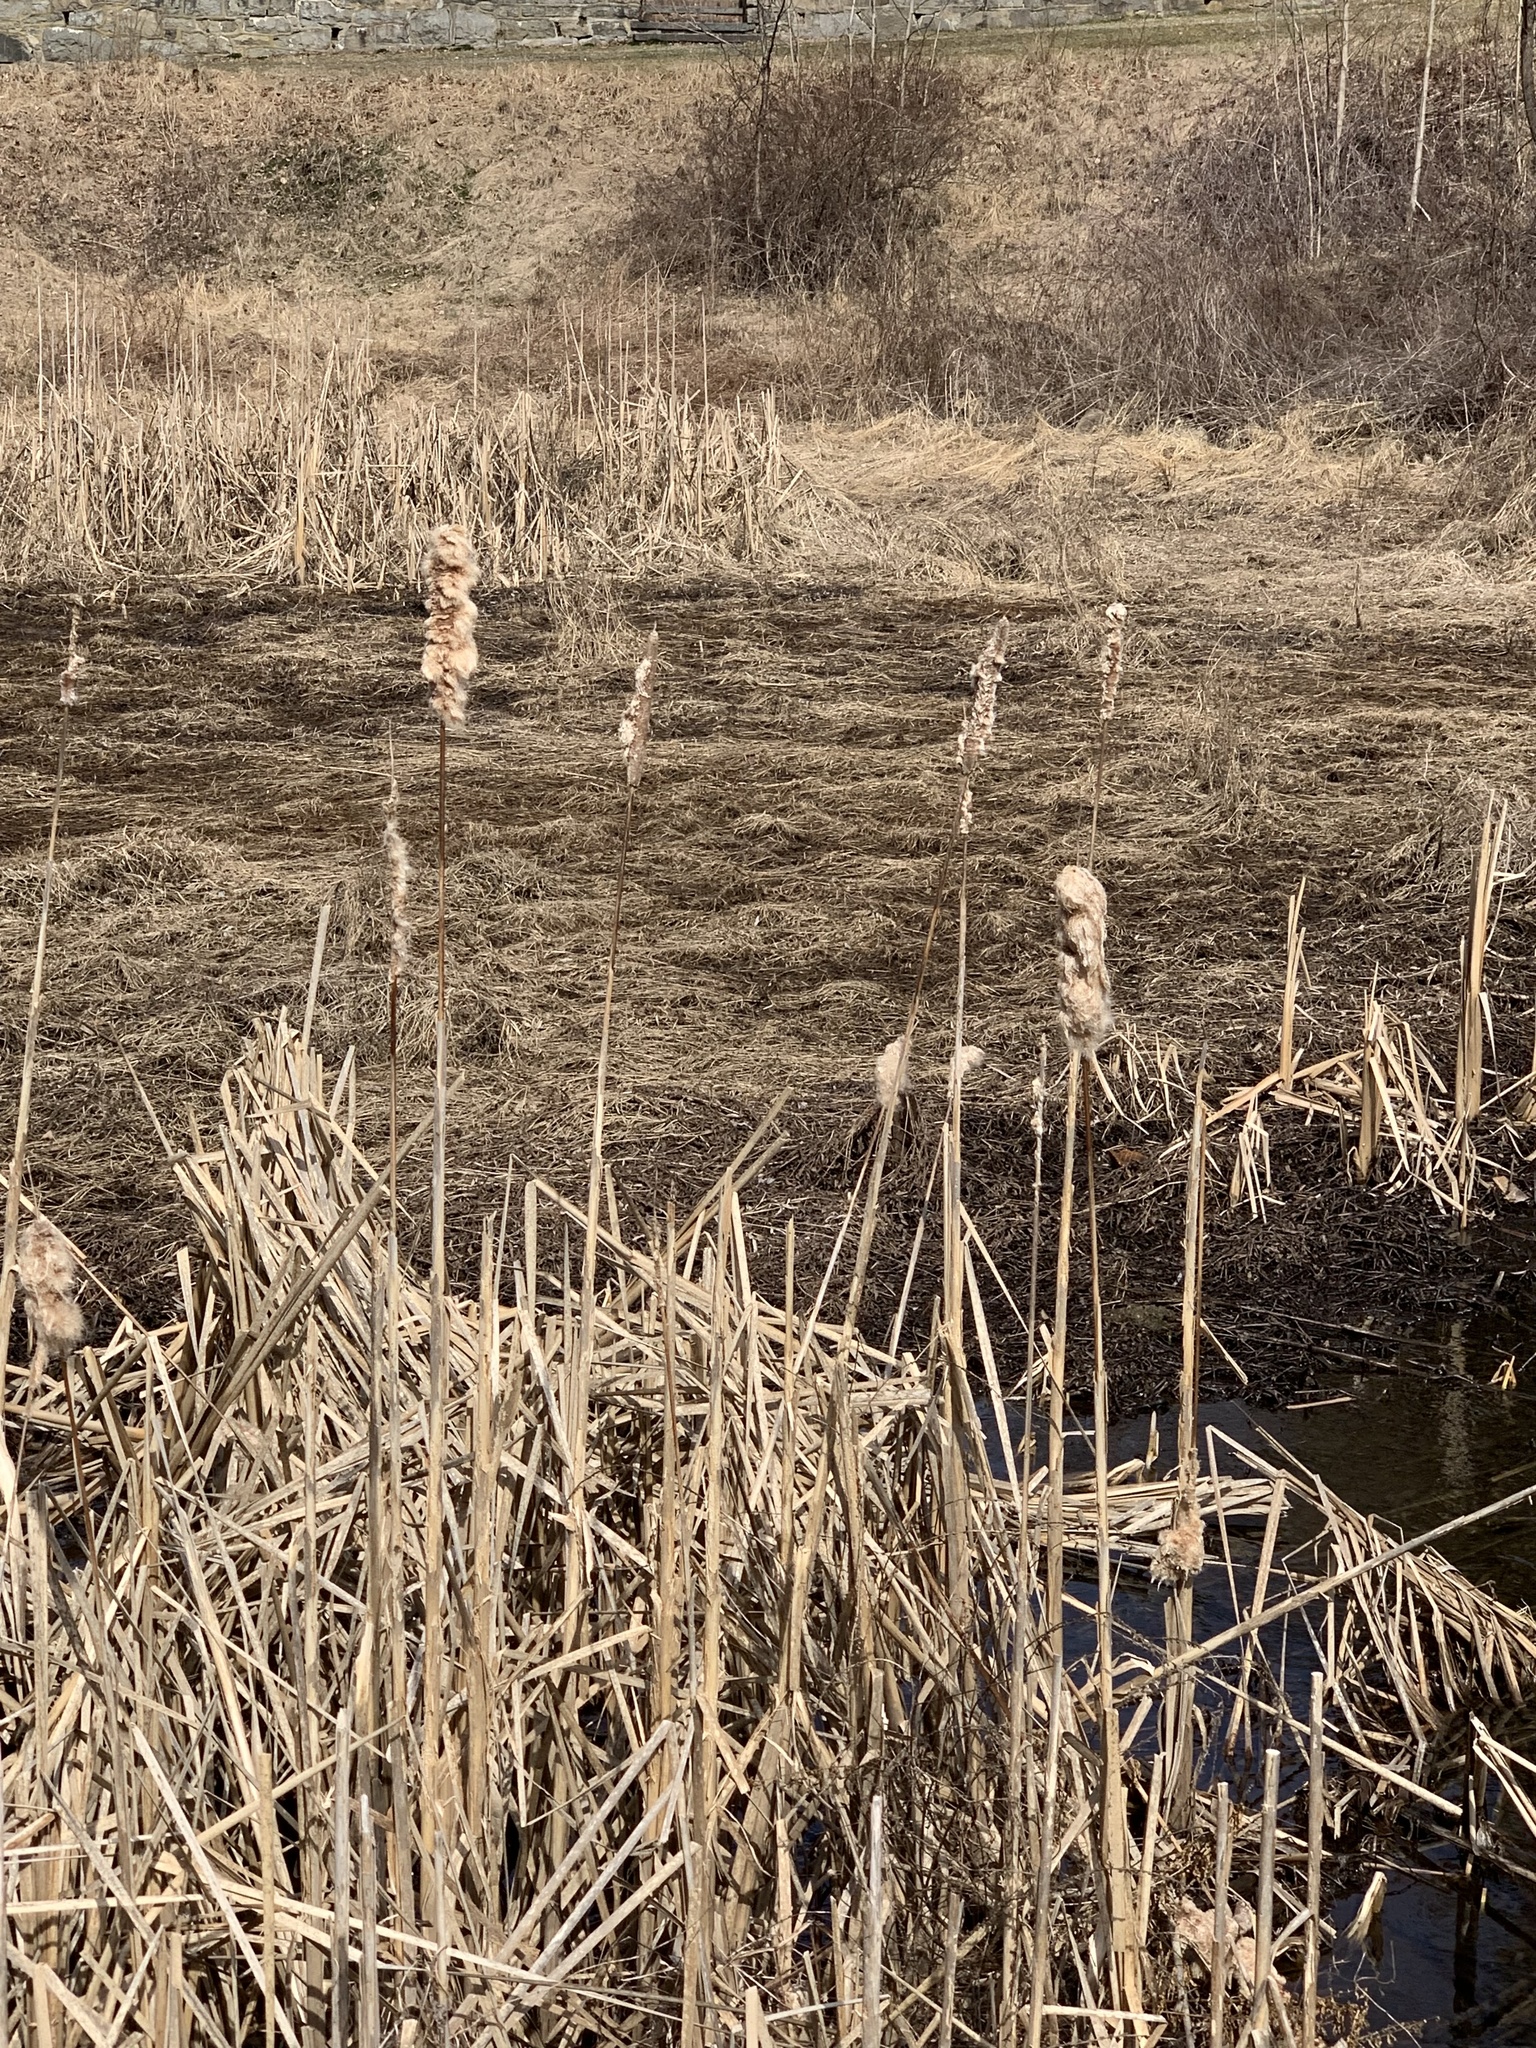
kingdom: Plantae
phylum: Tracheophyta
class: Liliopsida
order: Poales
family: Typhaceae
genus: Typha
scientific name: Typha latifolia
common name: Broadleaf cattail
